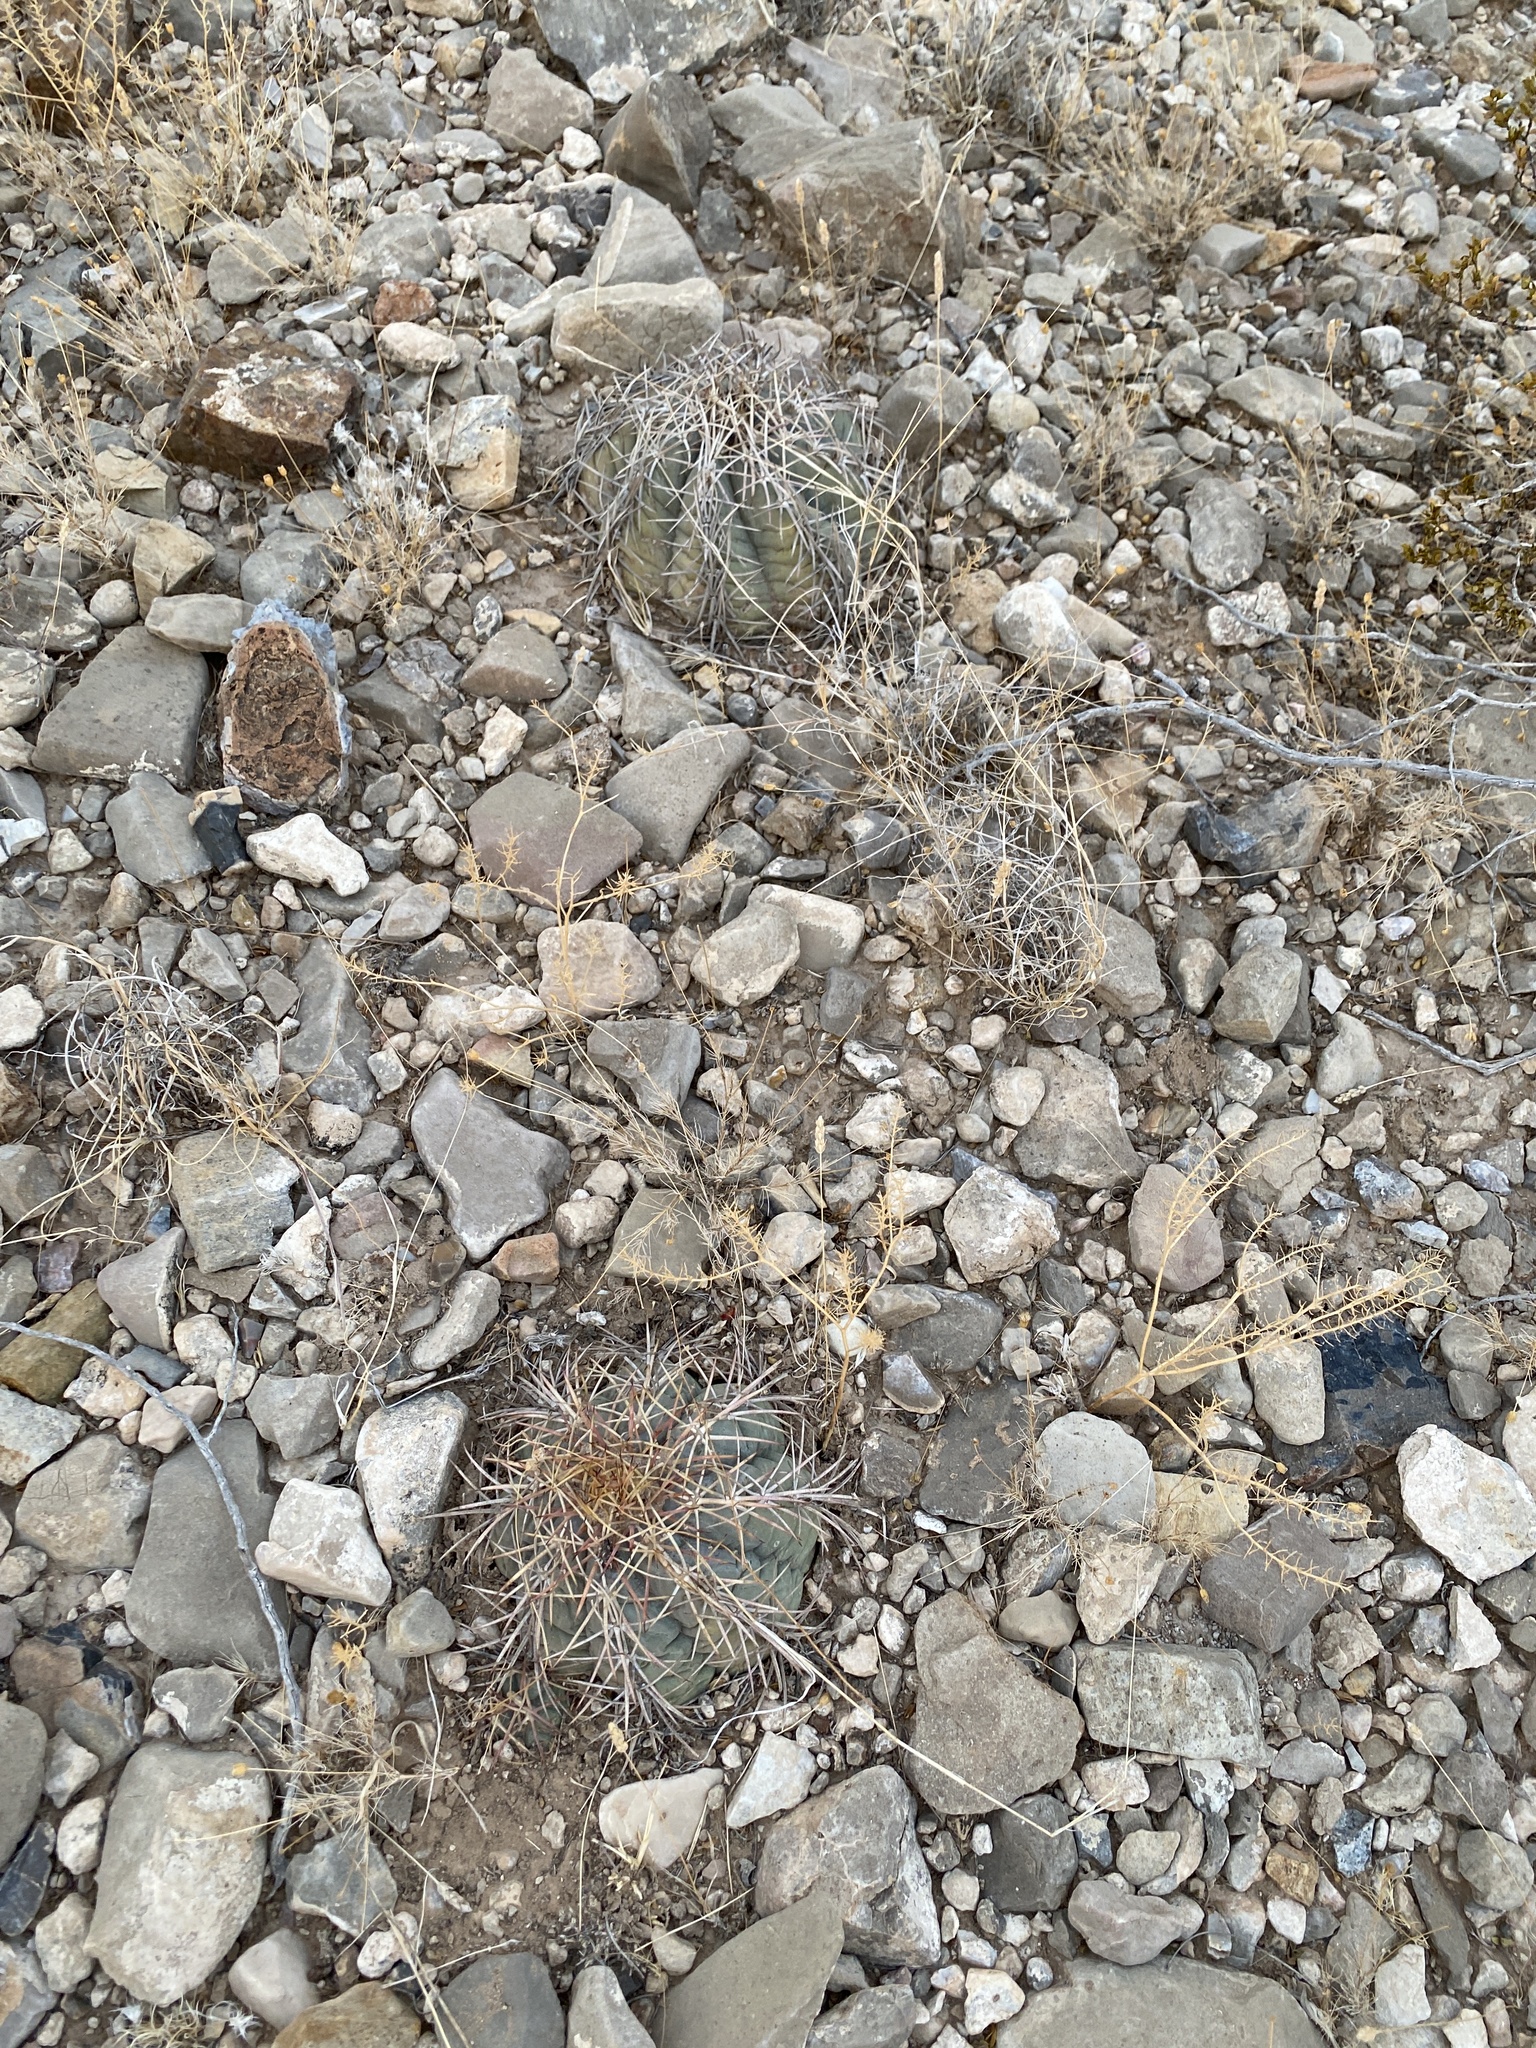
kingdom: Plantae
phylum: Tracheophyta
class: Magnoliopsida
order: Caryophyllales
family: Cactaceae
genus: Echinocactus
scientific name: Echinocactus horizonthalonius
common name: Devilshead
